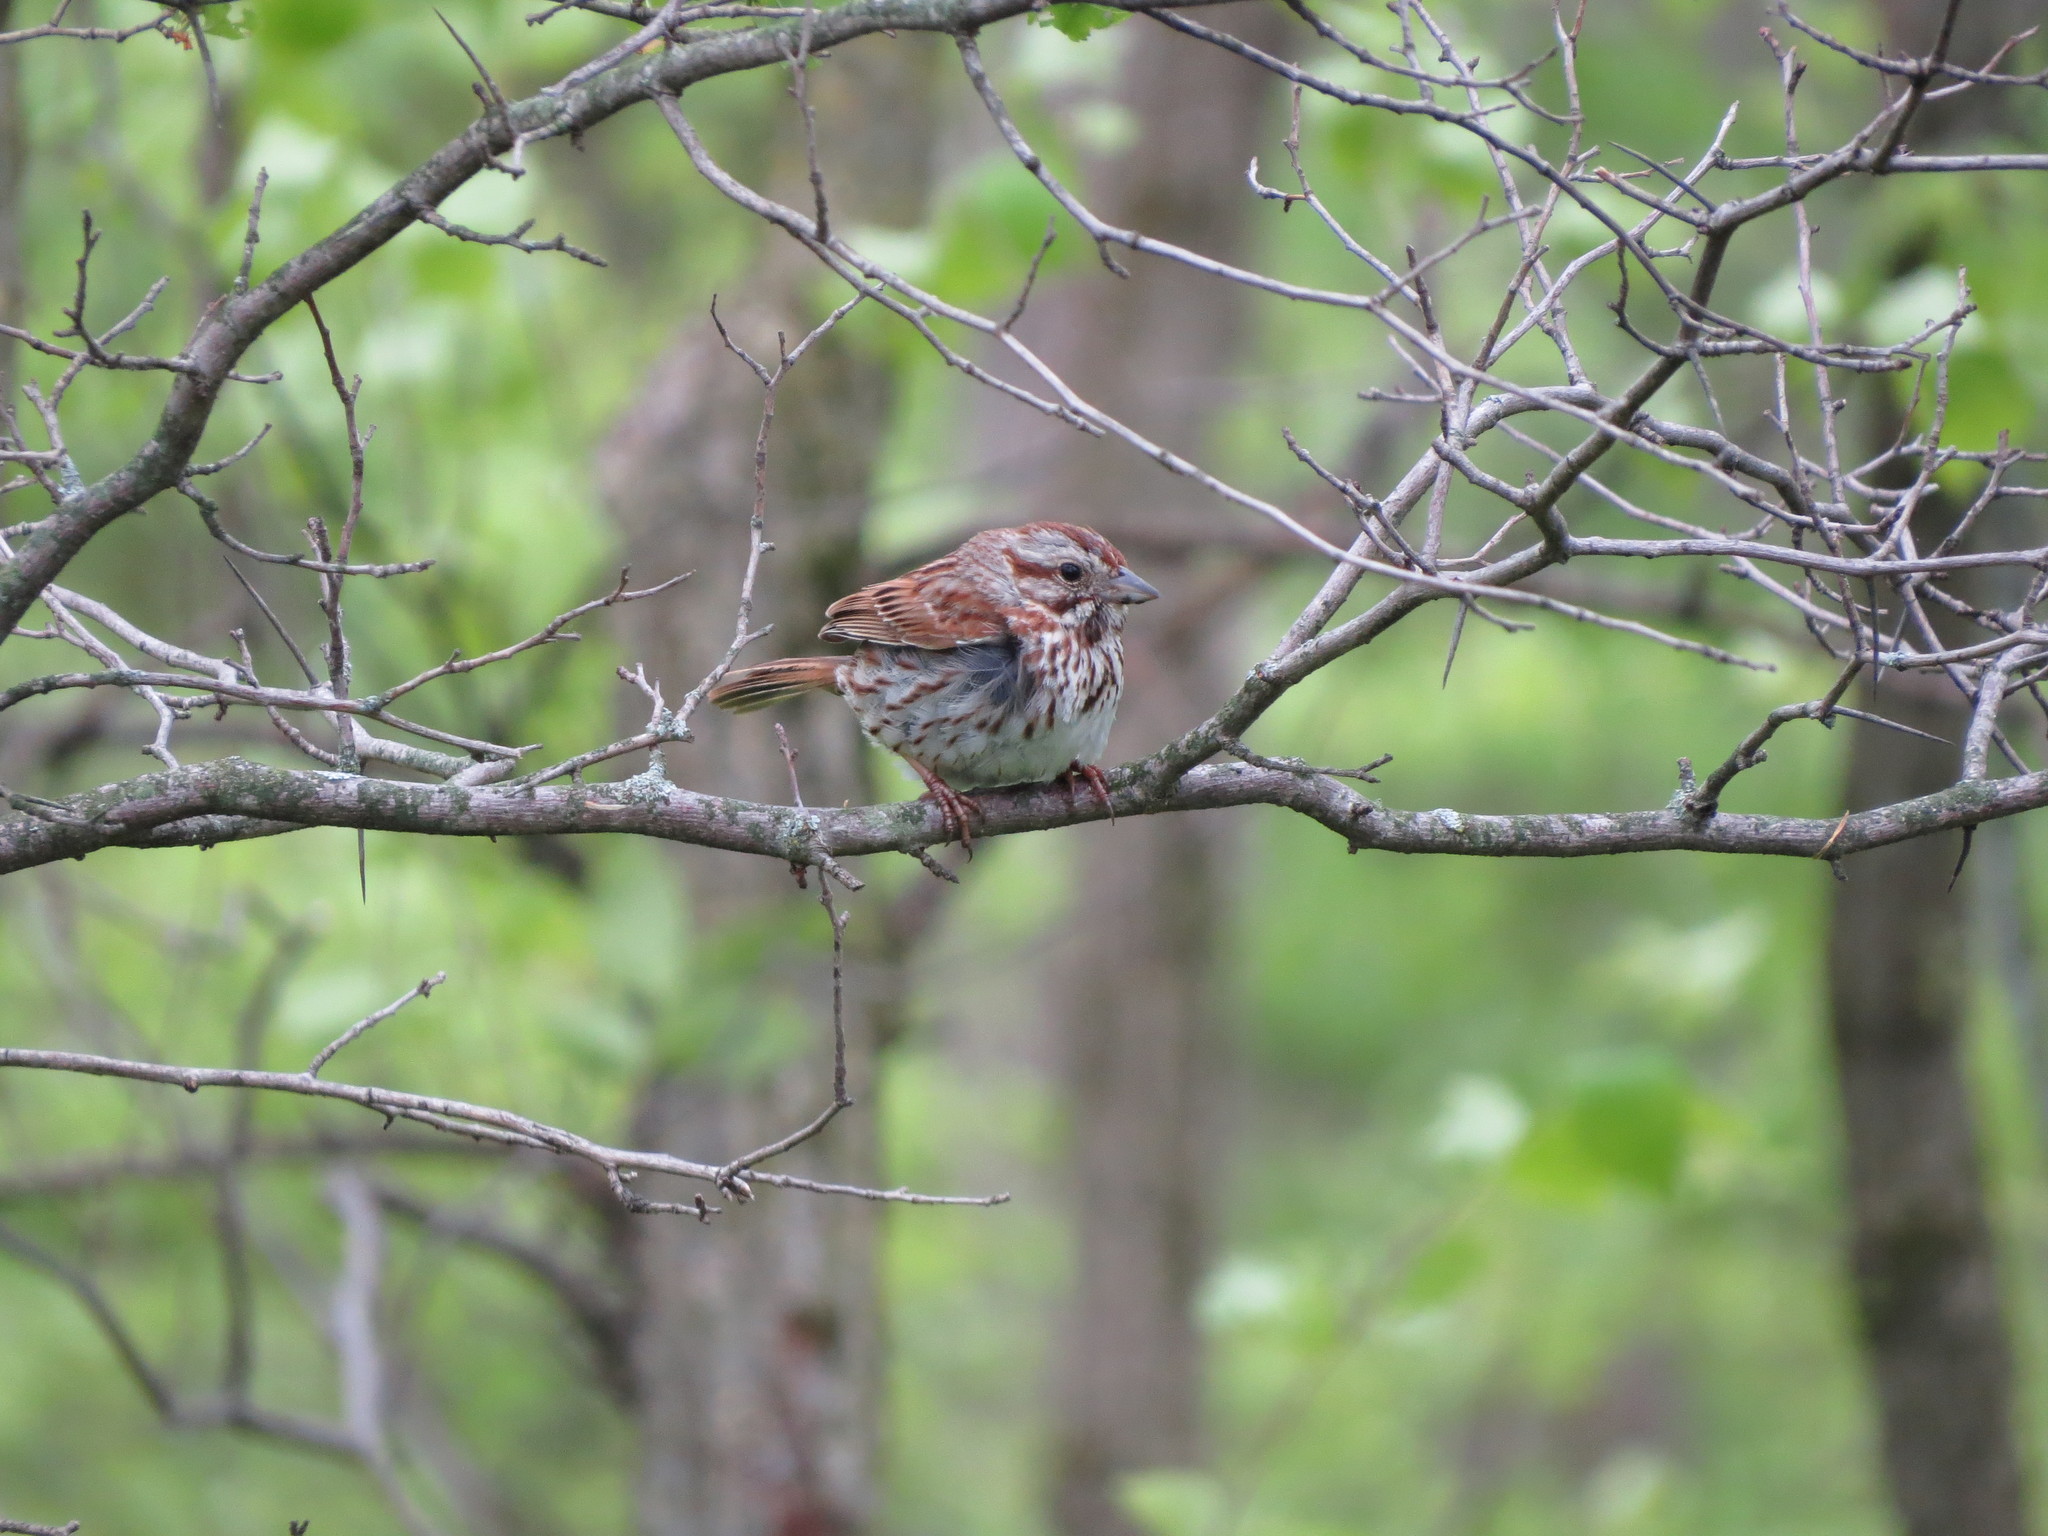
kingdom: Animalia
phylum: Chordata
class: Aves
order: Passeriformes
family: Passerellidae
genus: Melospiza
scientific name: Melospiza melodia
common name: Song sparrow
